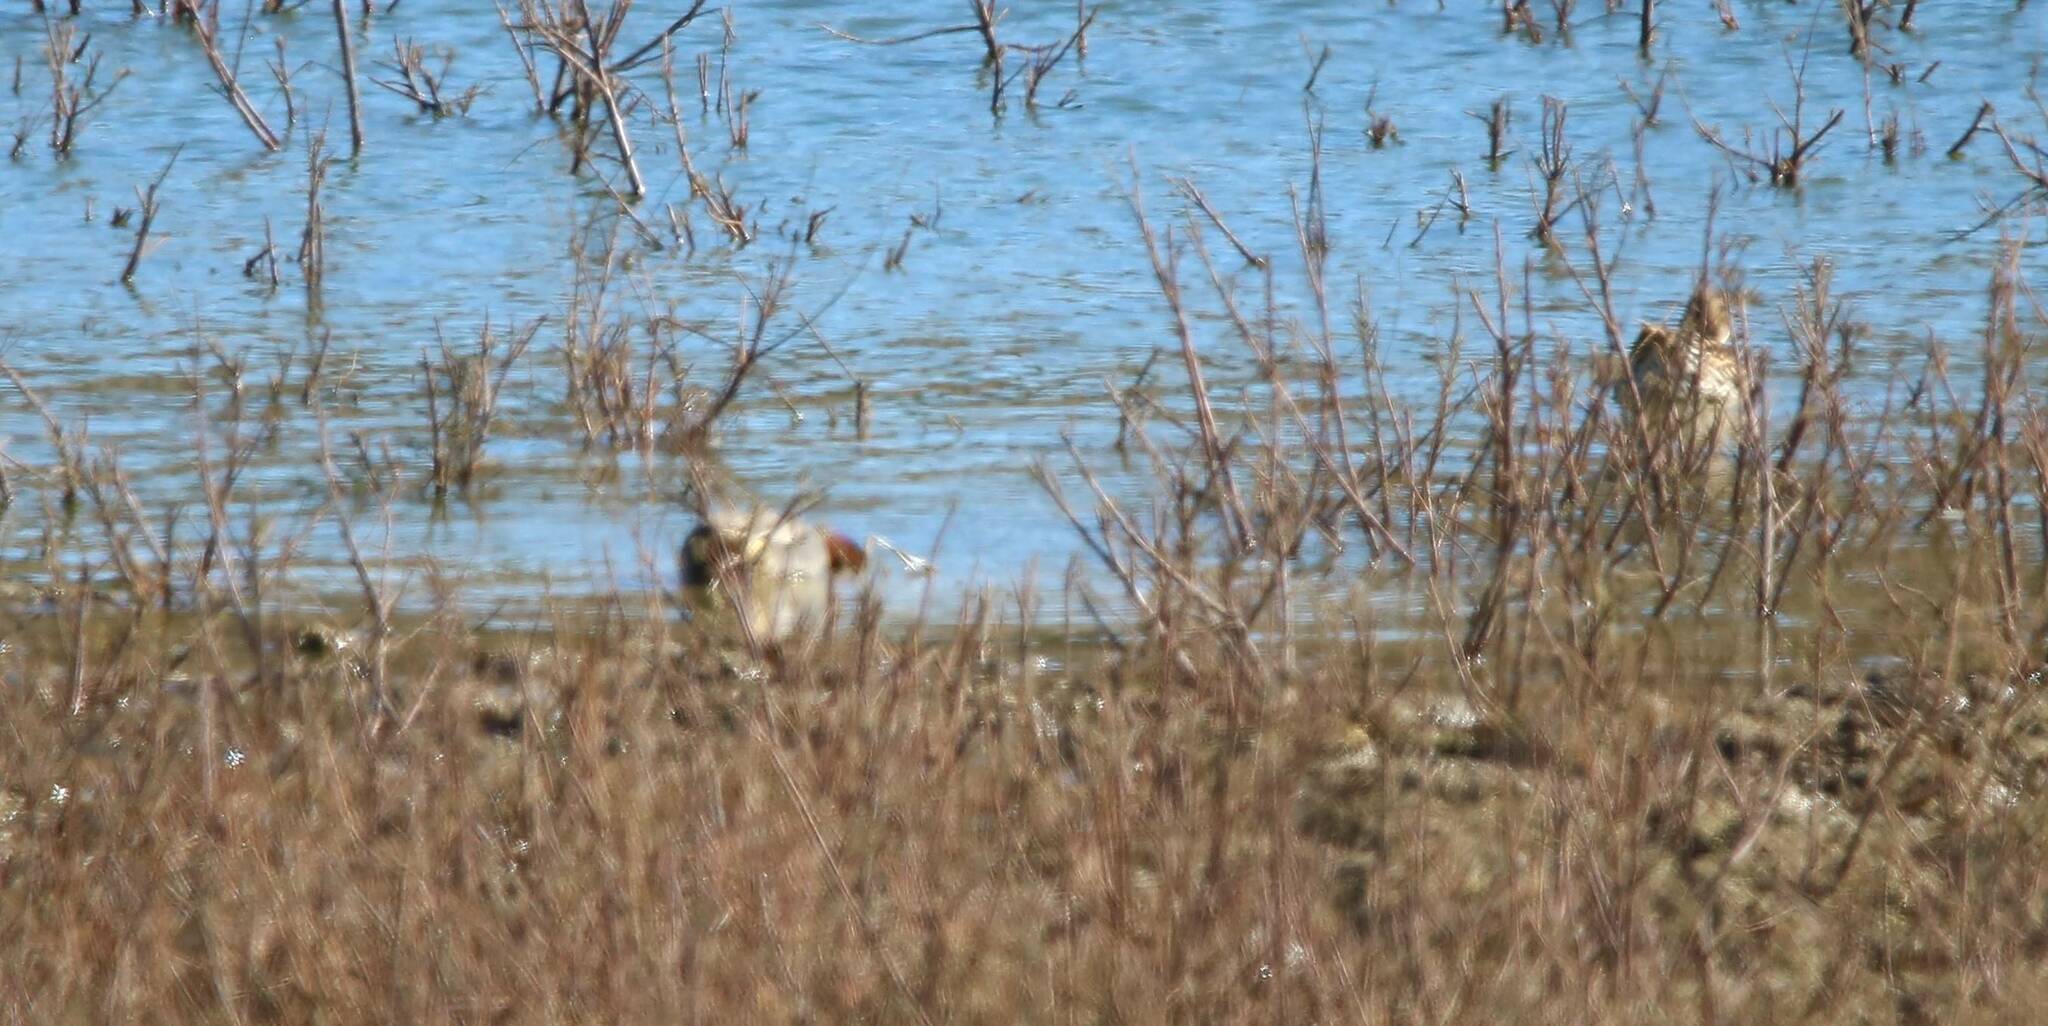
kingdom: Animalia
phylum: Chordata
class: Aves
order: Anseriformes
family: Anatidae
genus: Anas
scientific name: Anas crecca
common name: Eurasian teal
